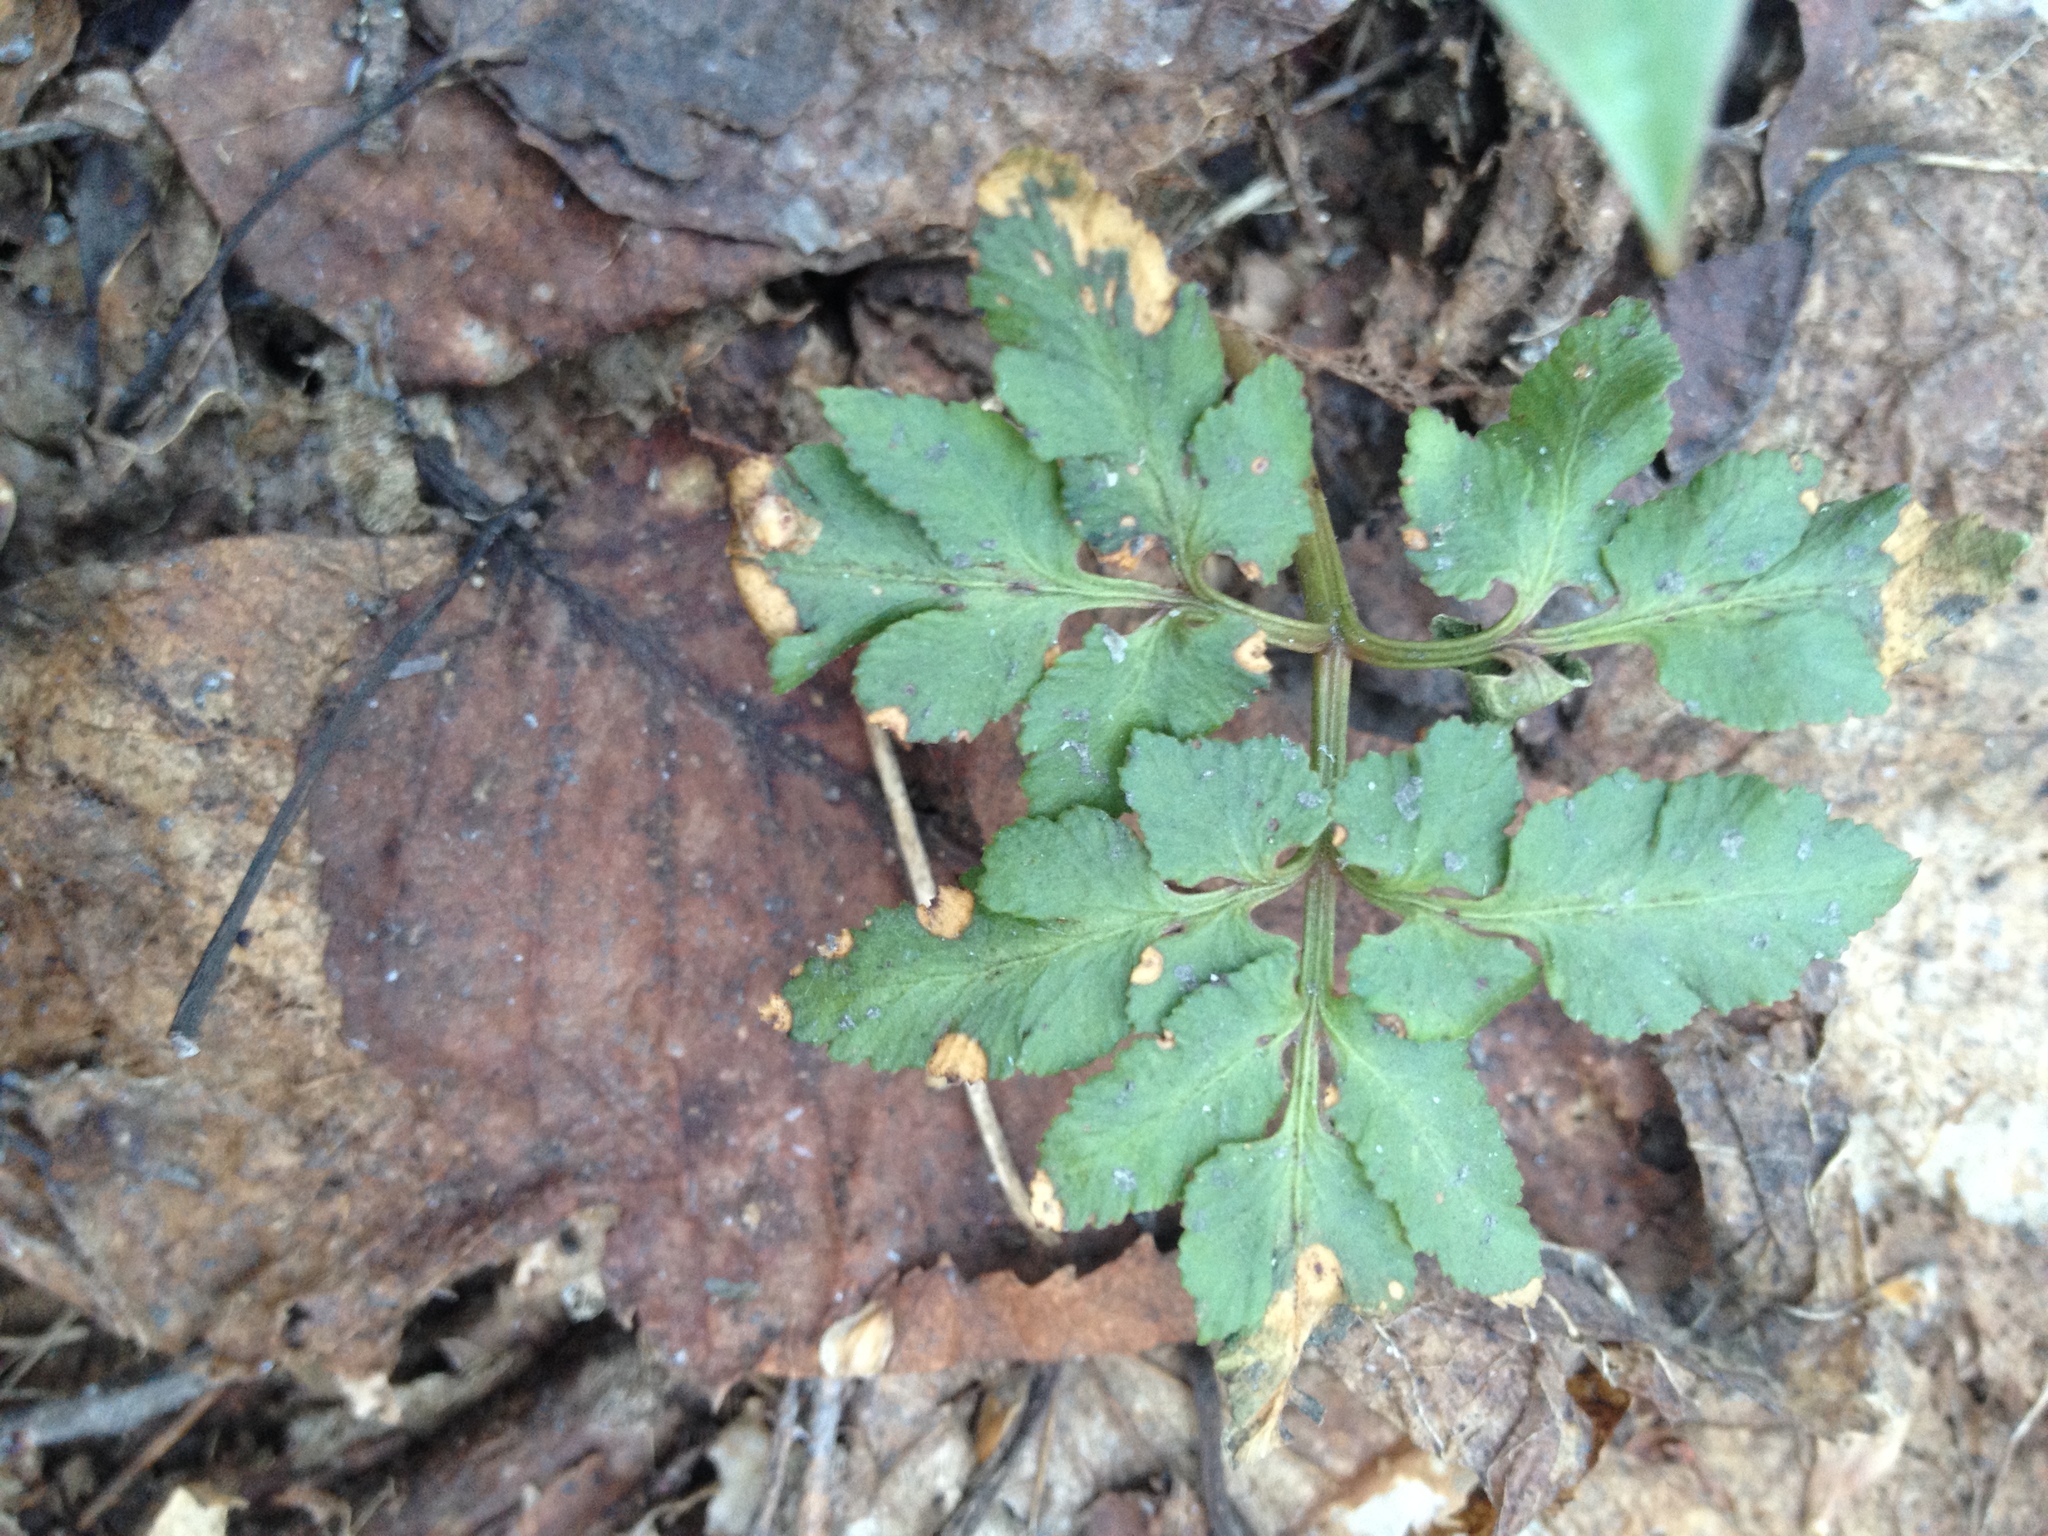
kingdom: Plantae
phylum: Tracheophyta
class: Polypodiopsida
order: Ophioglossales
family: Ophioglossaceae
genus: Sceptridium
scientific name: Sceptridium dissectum
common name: Cut-leaved grapefern
